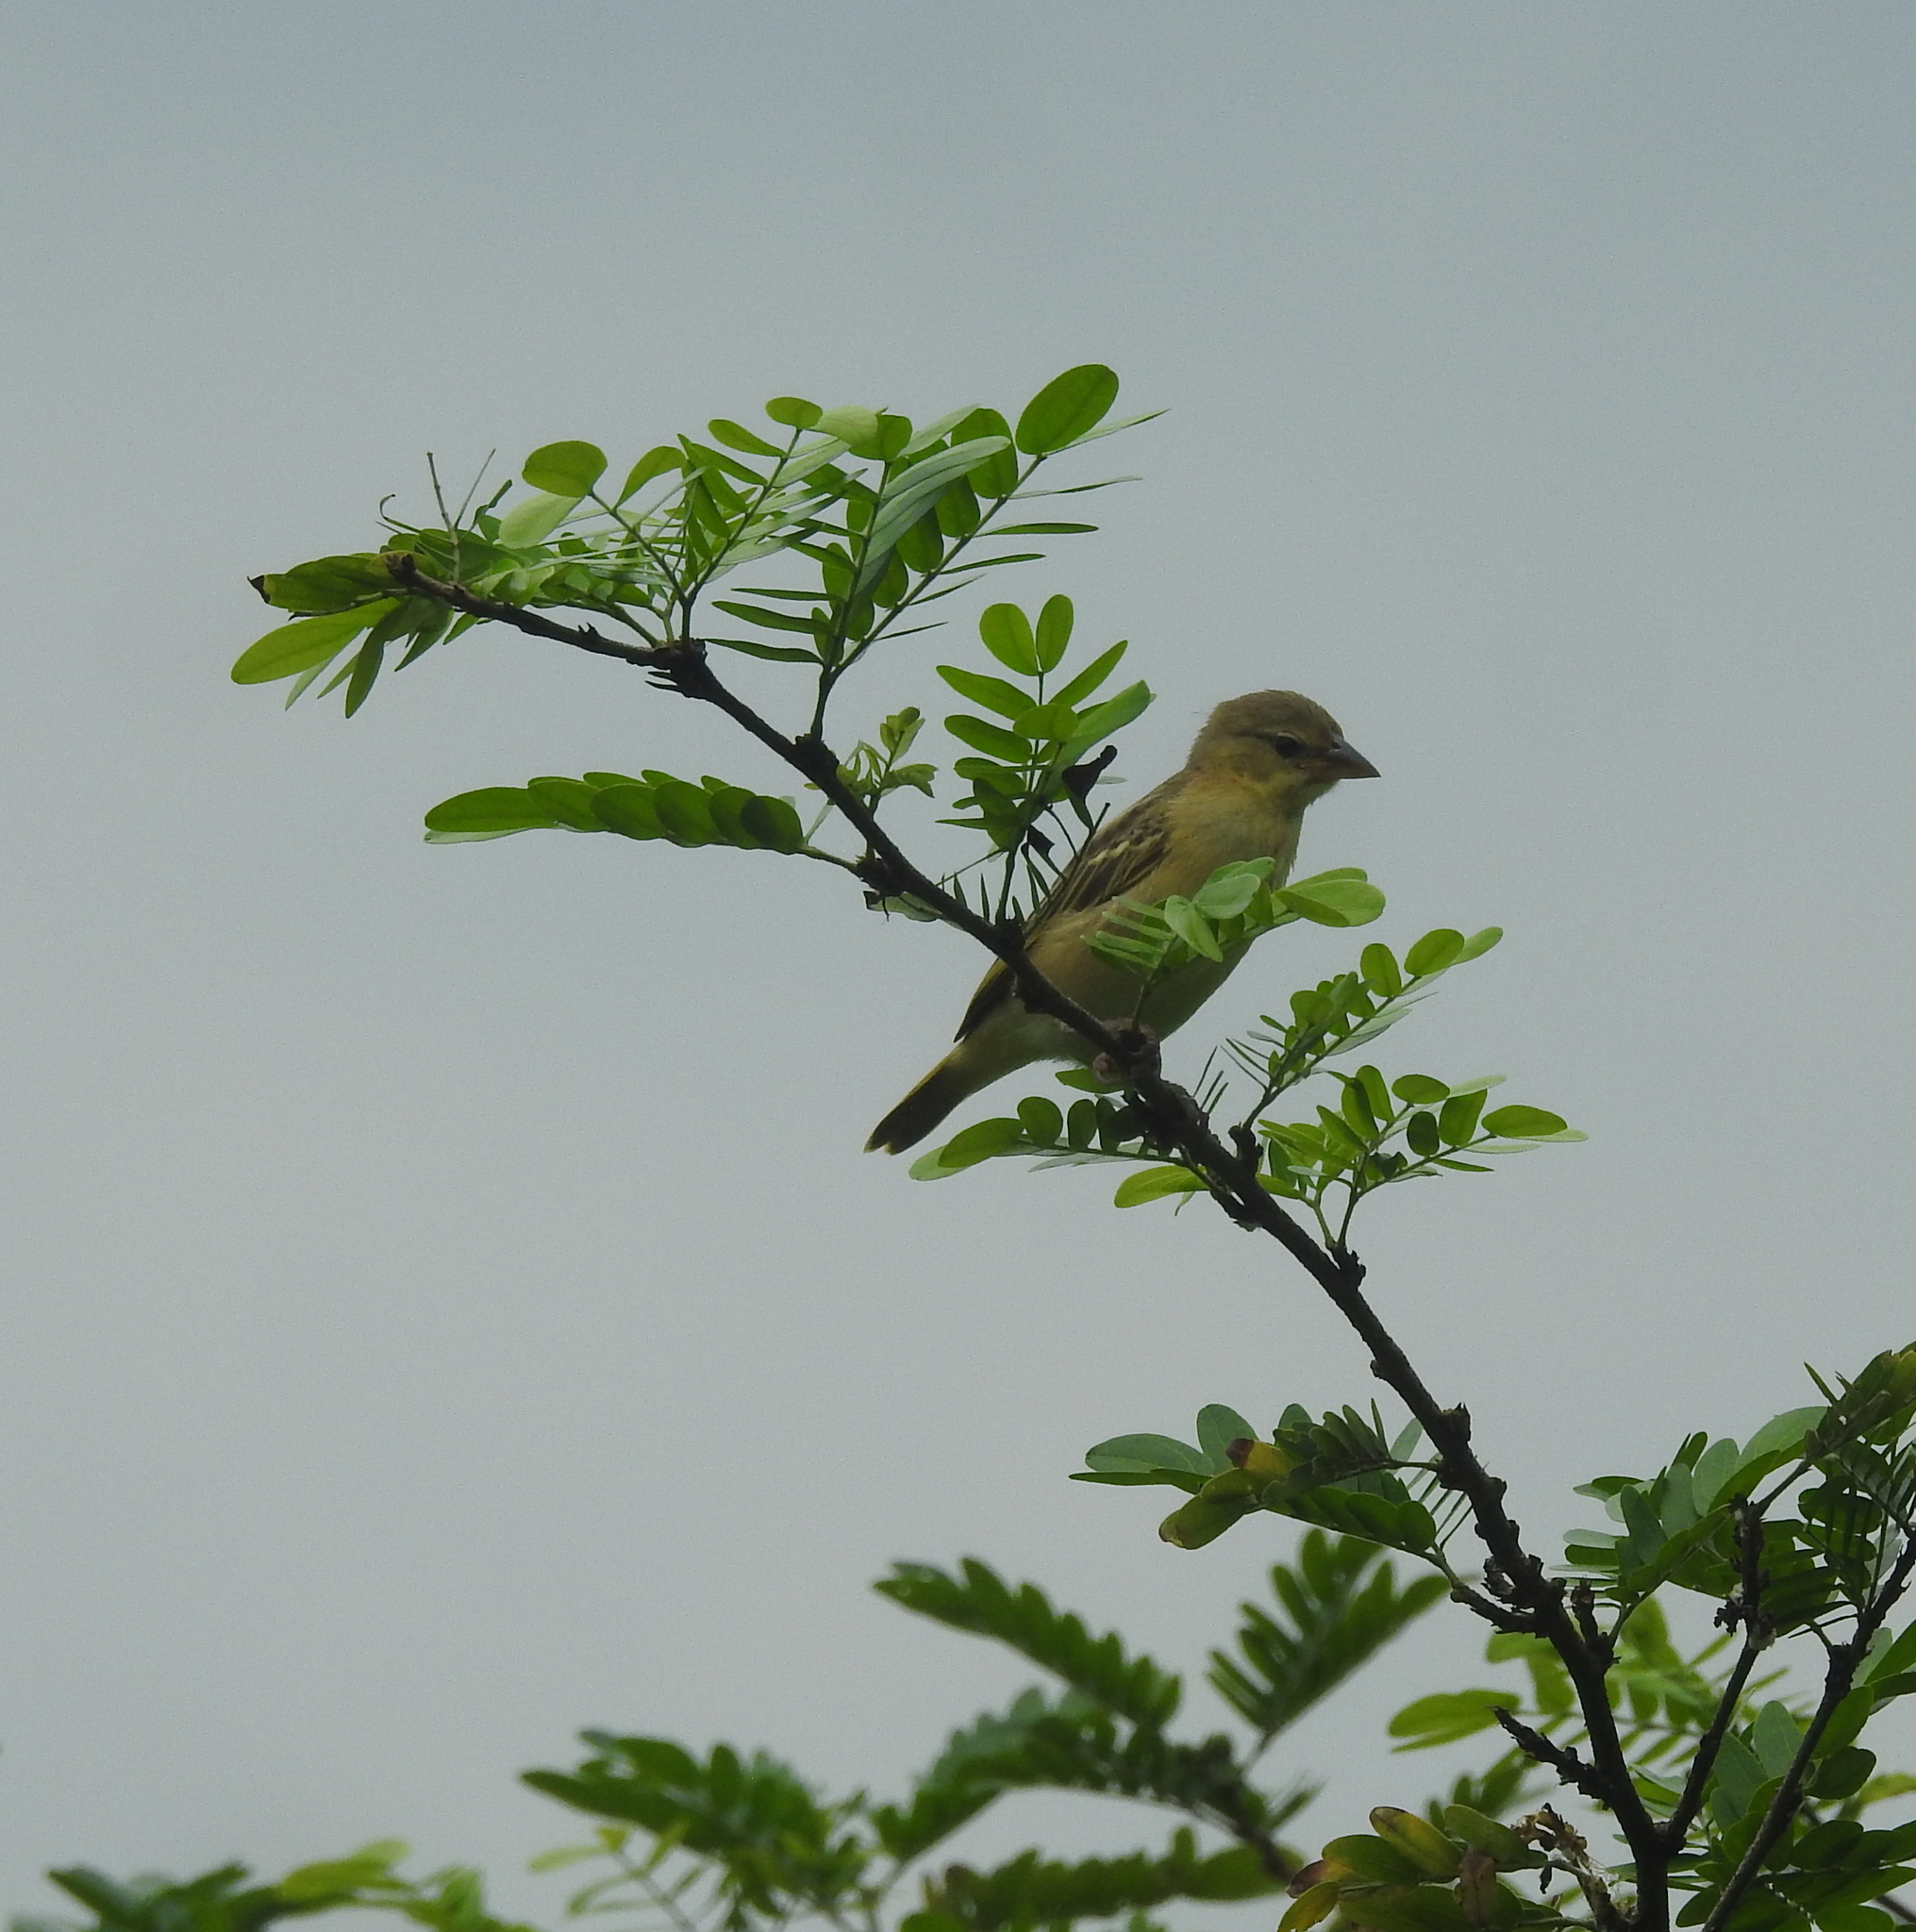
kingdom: Animalia
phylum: Chordata
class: Aves
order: Passeriformes
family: Ploceidae
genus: Ploceus
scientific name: Ploceus jacksoni
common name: Golden-backed weaver
